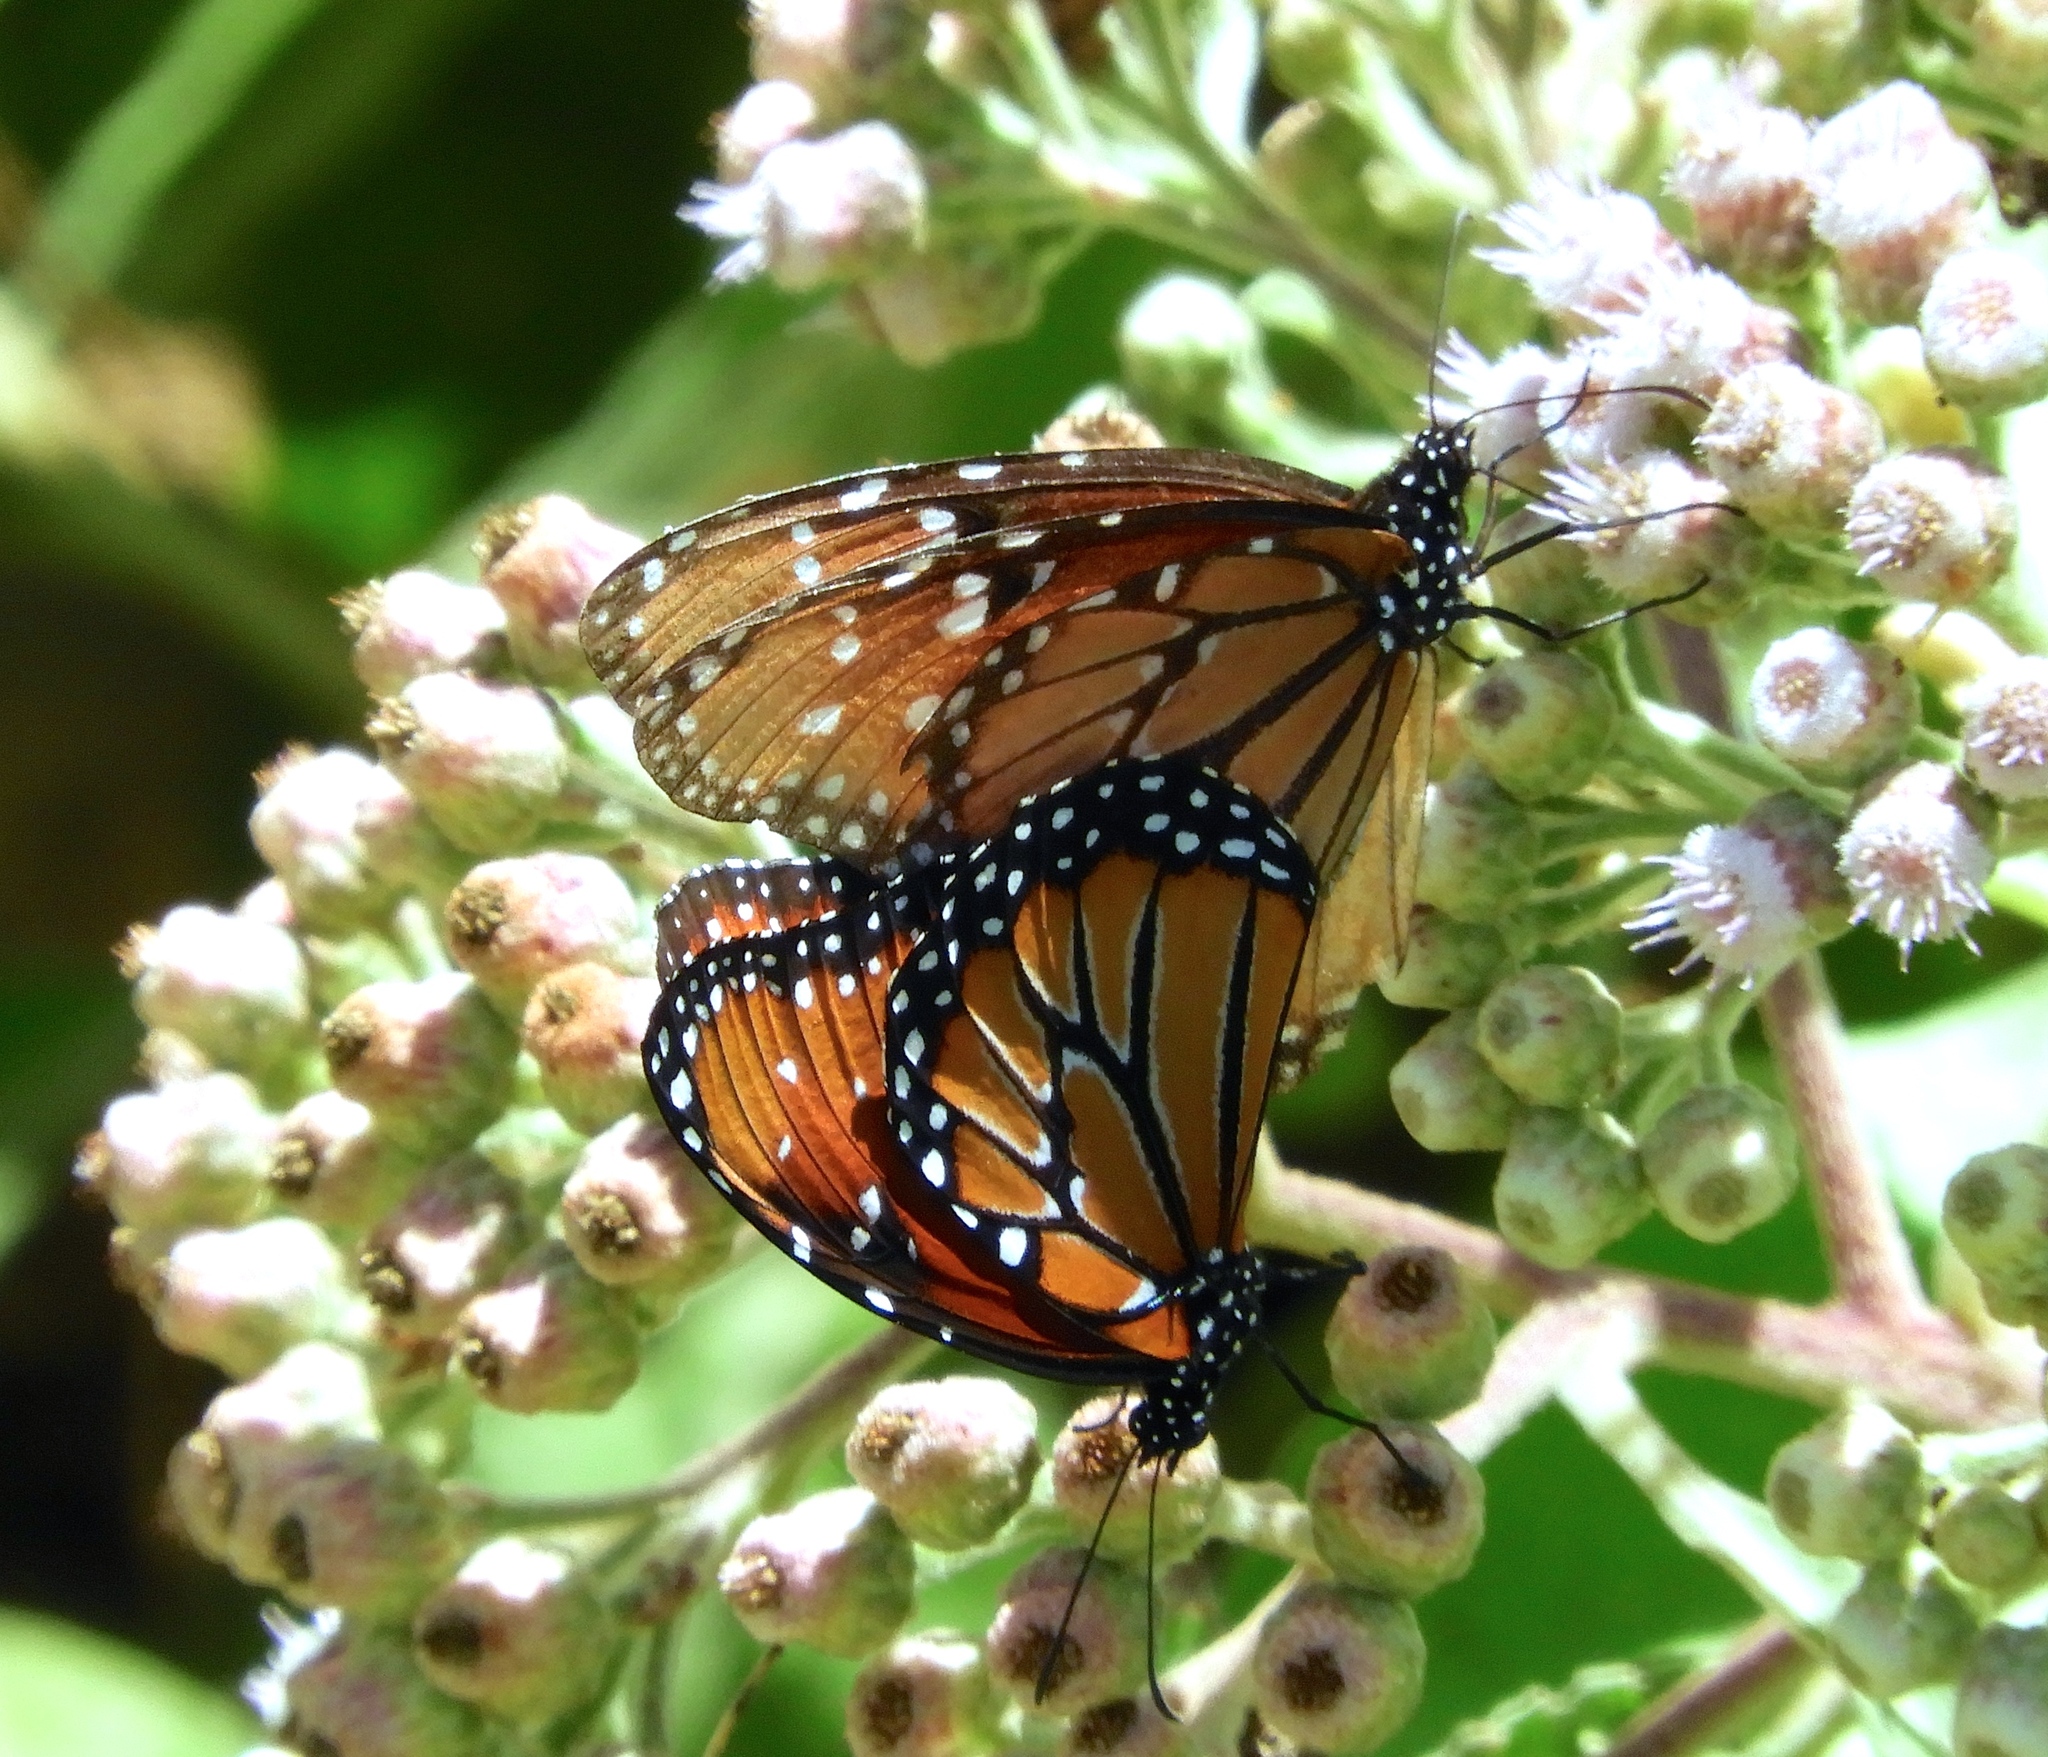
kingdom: Animalia
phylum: Arthropoda
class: Insecta
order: Lepidoptera
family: Nymphalidae
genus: Danaus
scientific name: Danaus gilippus
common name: Queen
